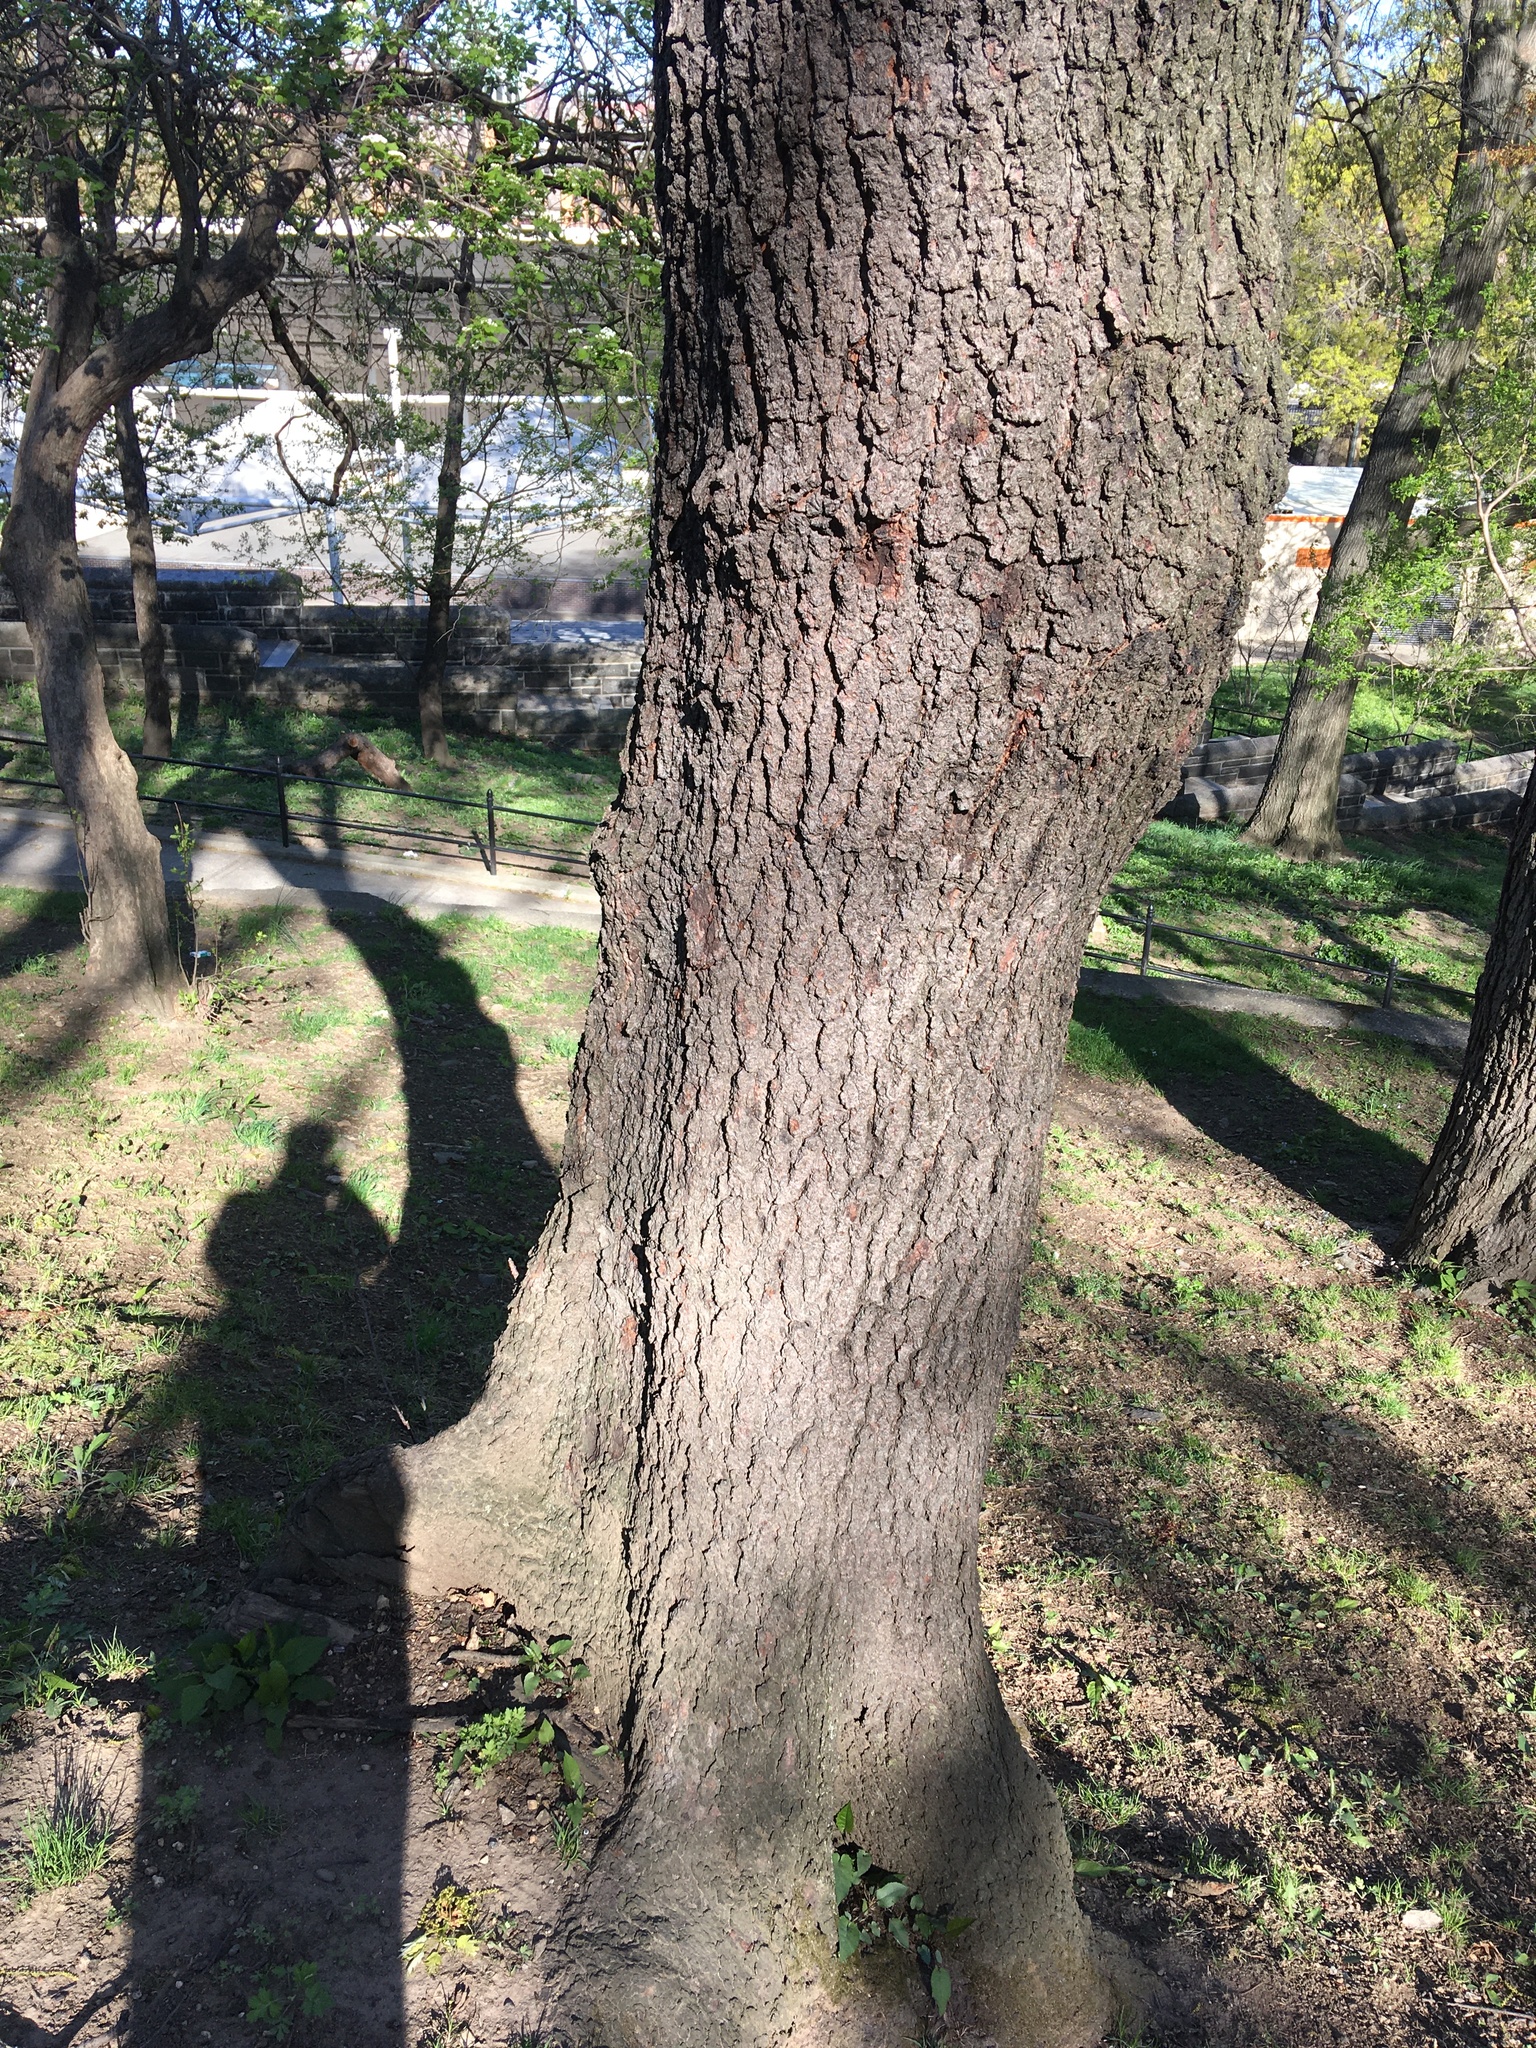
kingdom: Plantae
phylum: Tracheophyta
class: Magnoliopsida
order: Rosales
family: Rosaceae
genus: Prunus
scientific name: Prunus serotina
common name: Black cherry
